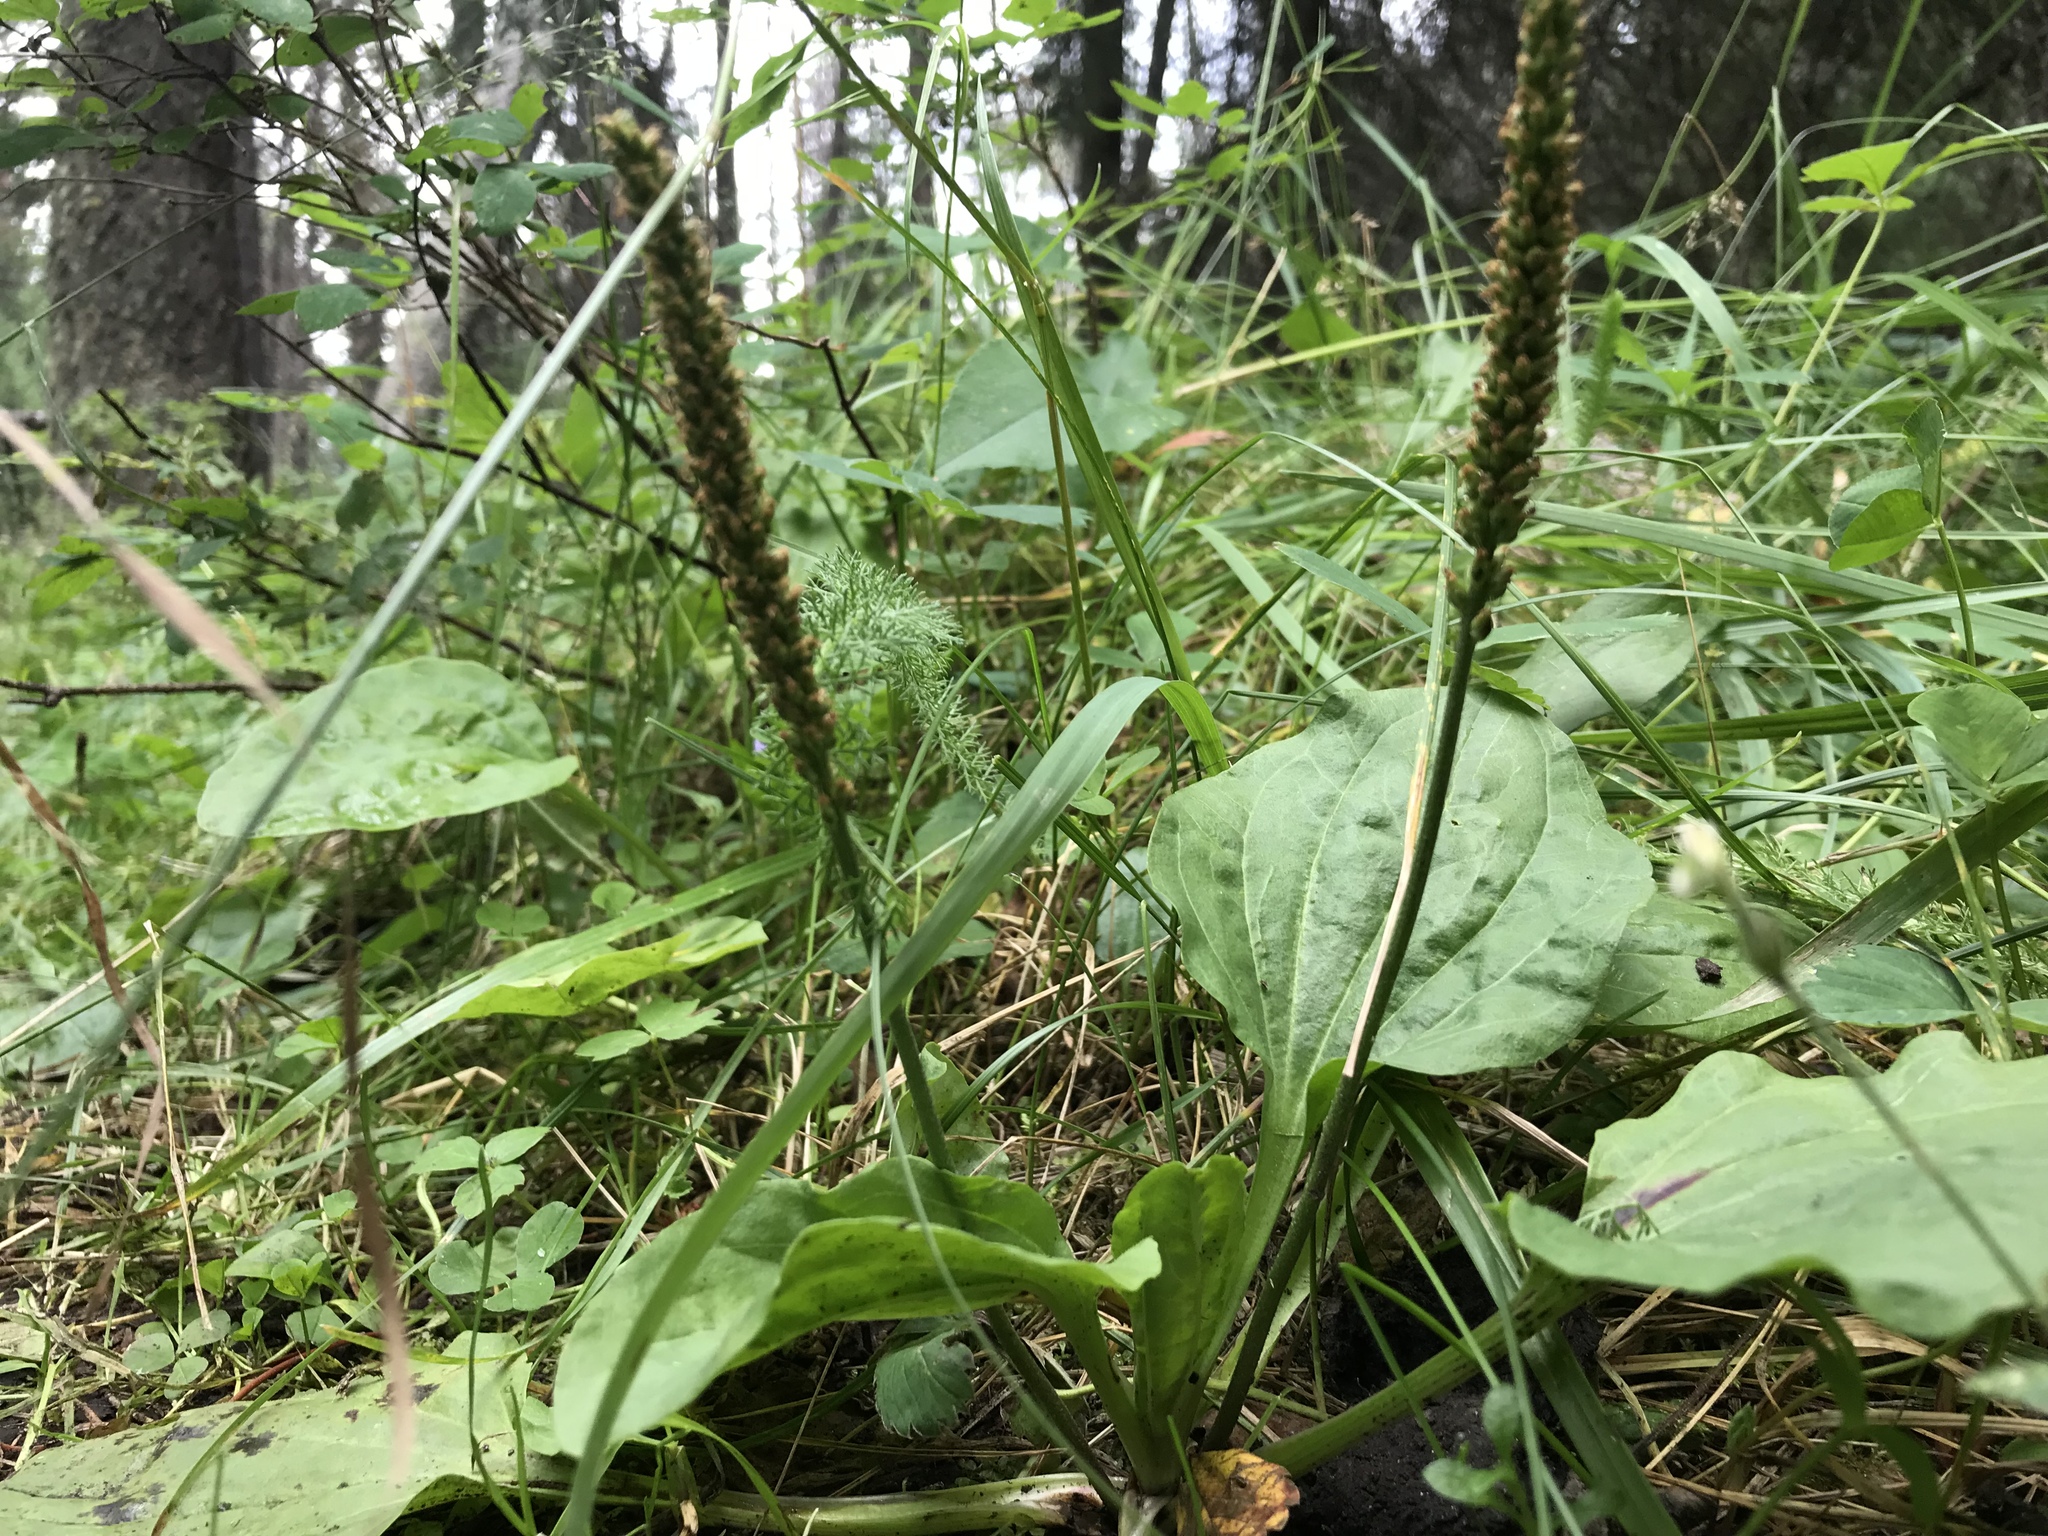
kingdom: Plantae
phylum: Tracheophyta
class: Magnoliopsida
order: Lamiales
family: Plantaginaceae
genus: Plantago
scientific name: Plantago major
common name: Common plantain
